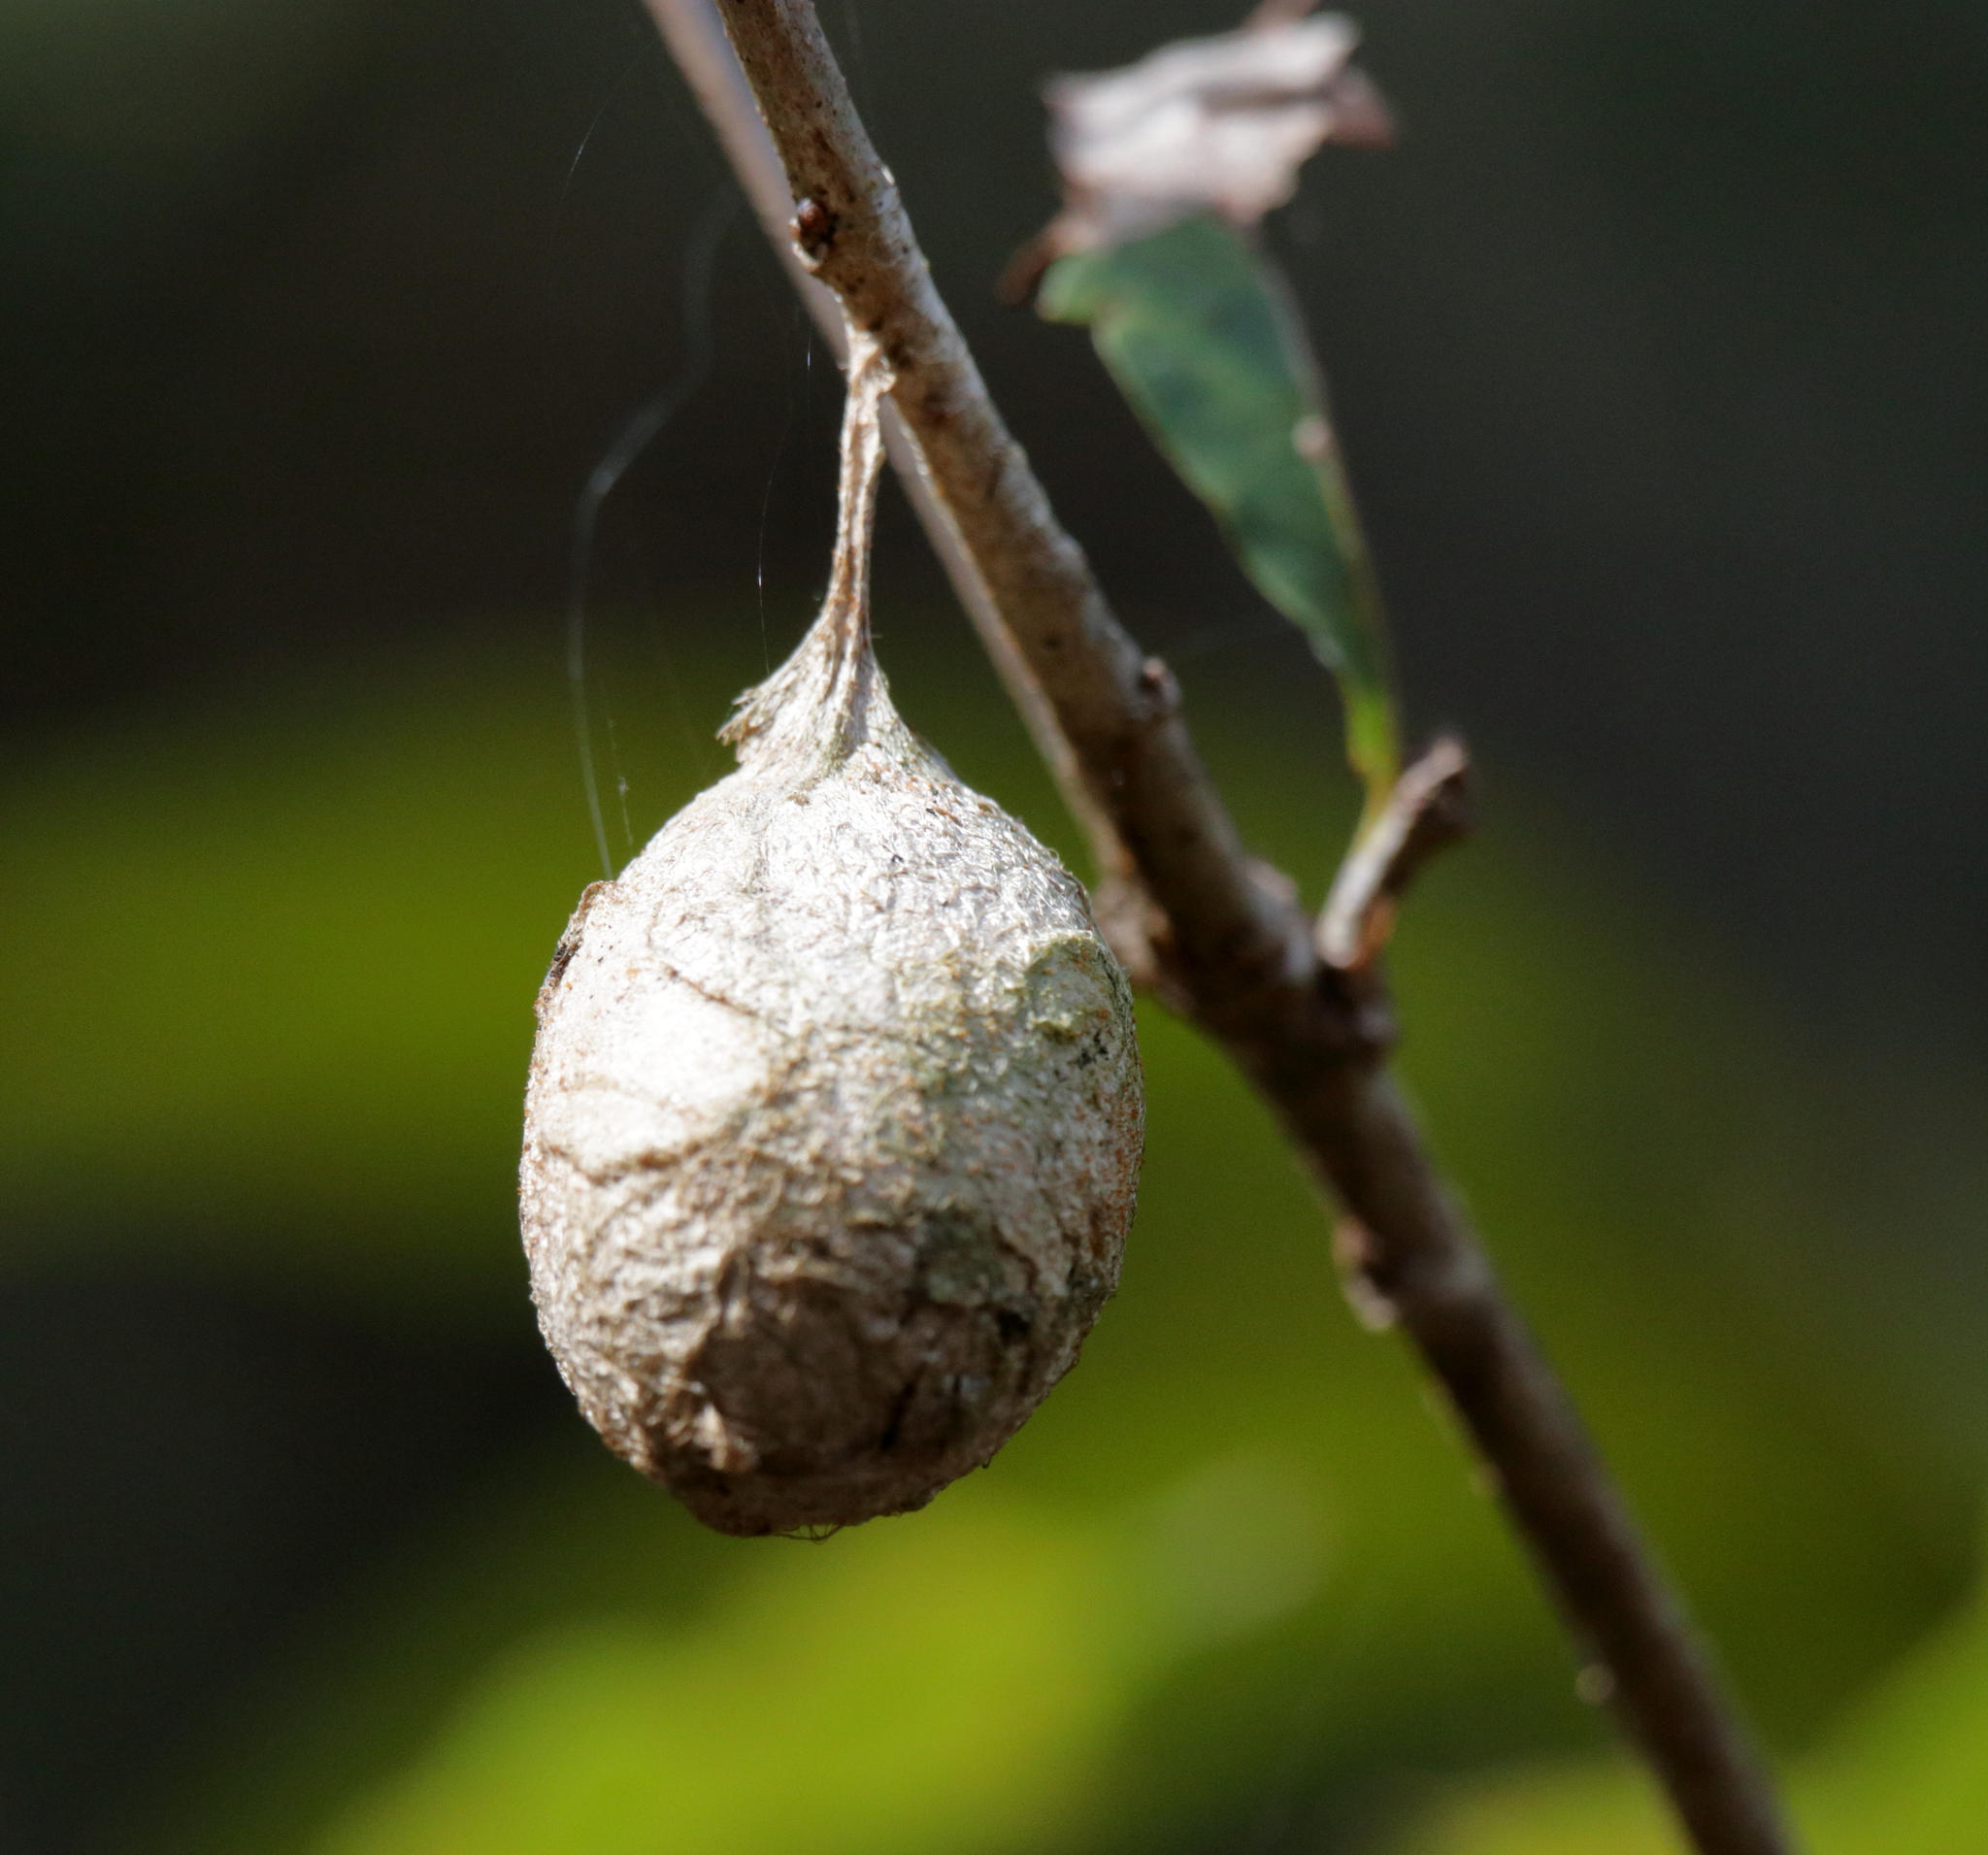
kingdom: Animalia
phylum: Arthropoda
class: Insecta
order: Lepidoptera
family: Saturniidae
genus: Antheraea
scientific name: Antheraea polyphemus
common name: Polyphemus moth
